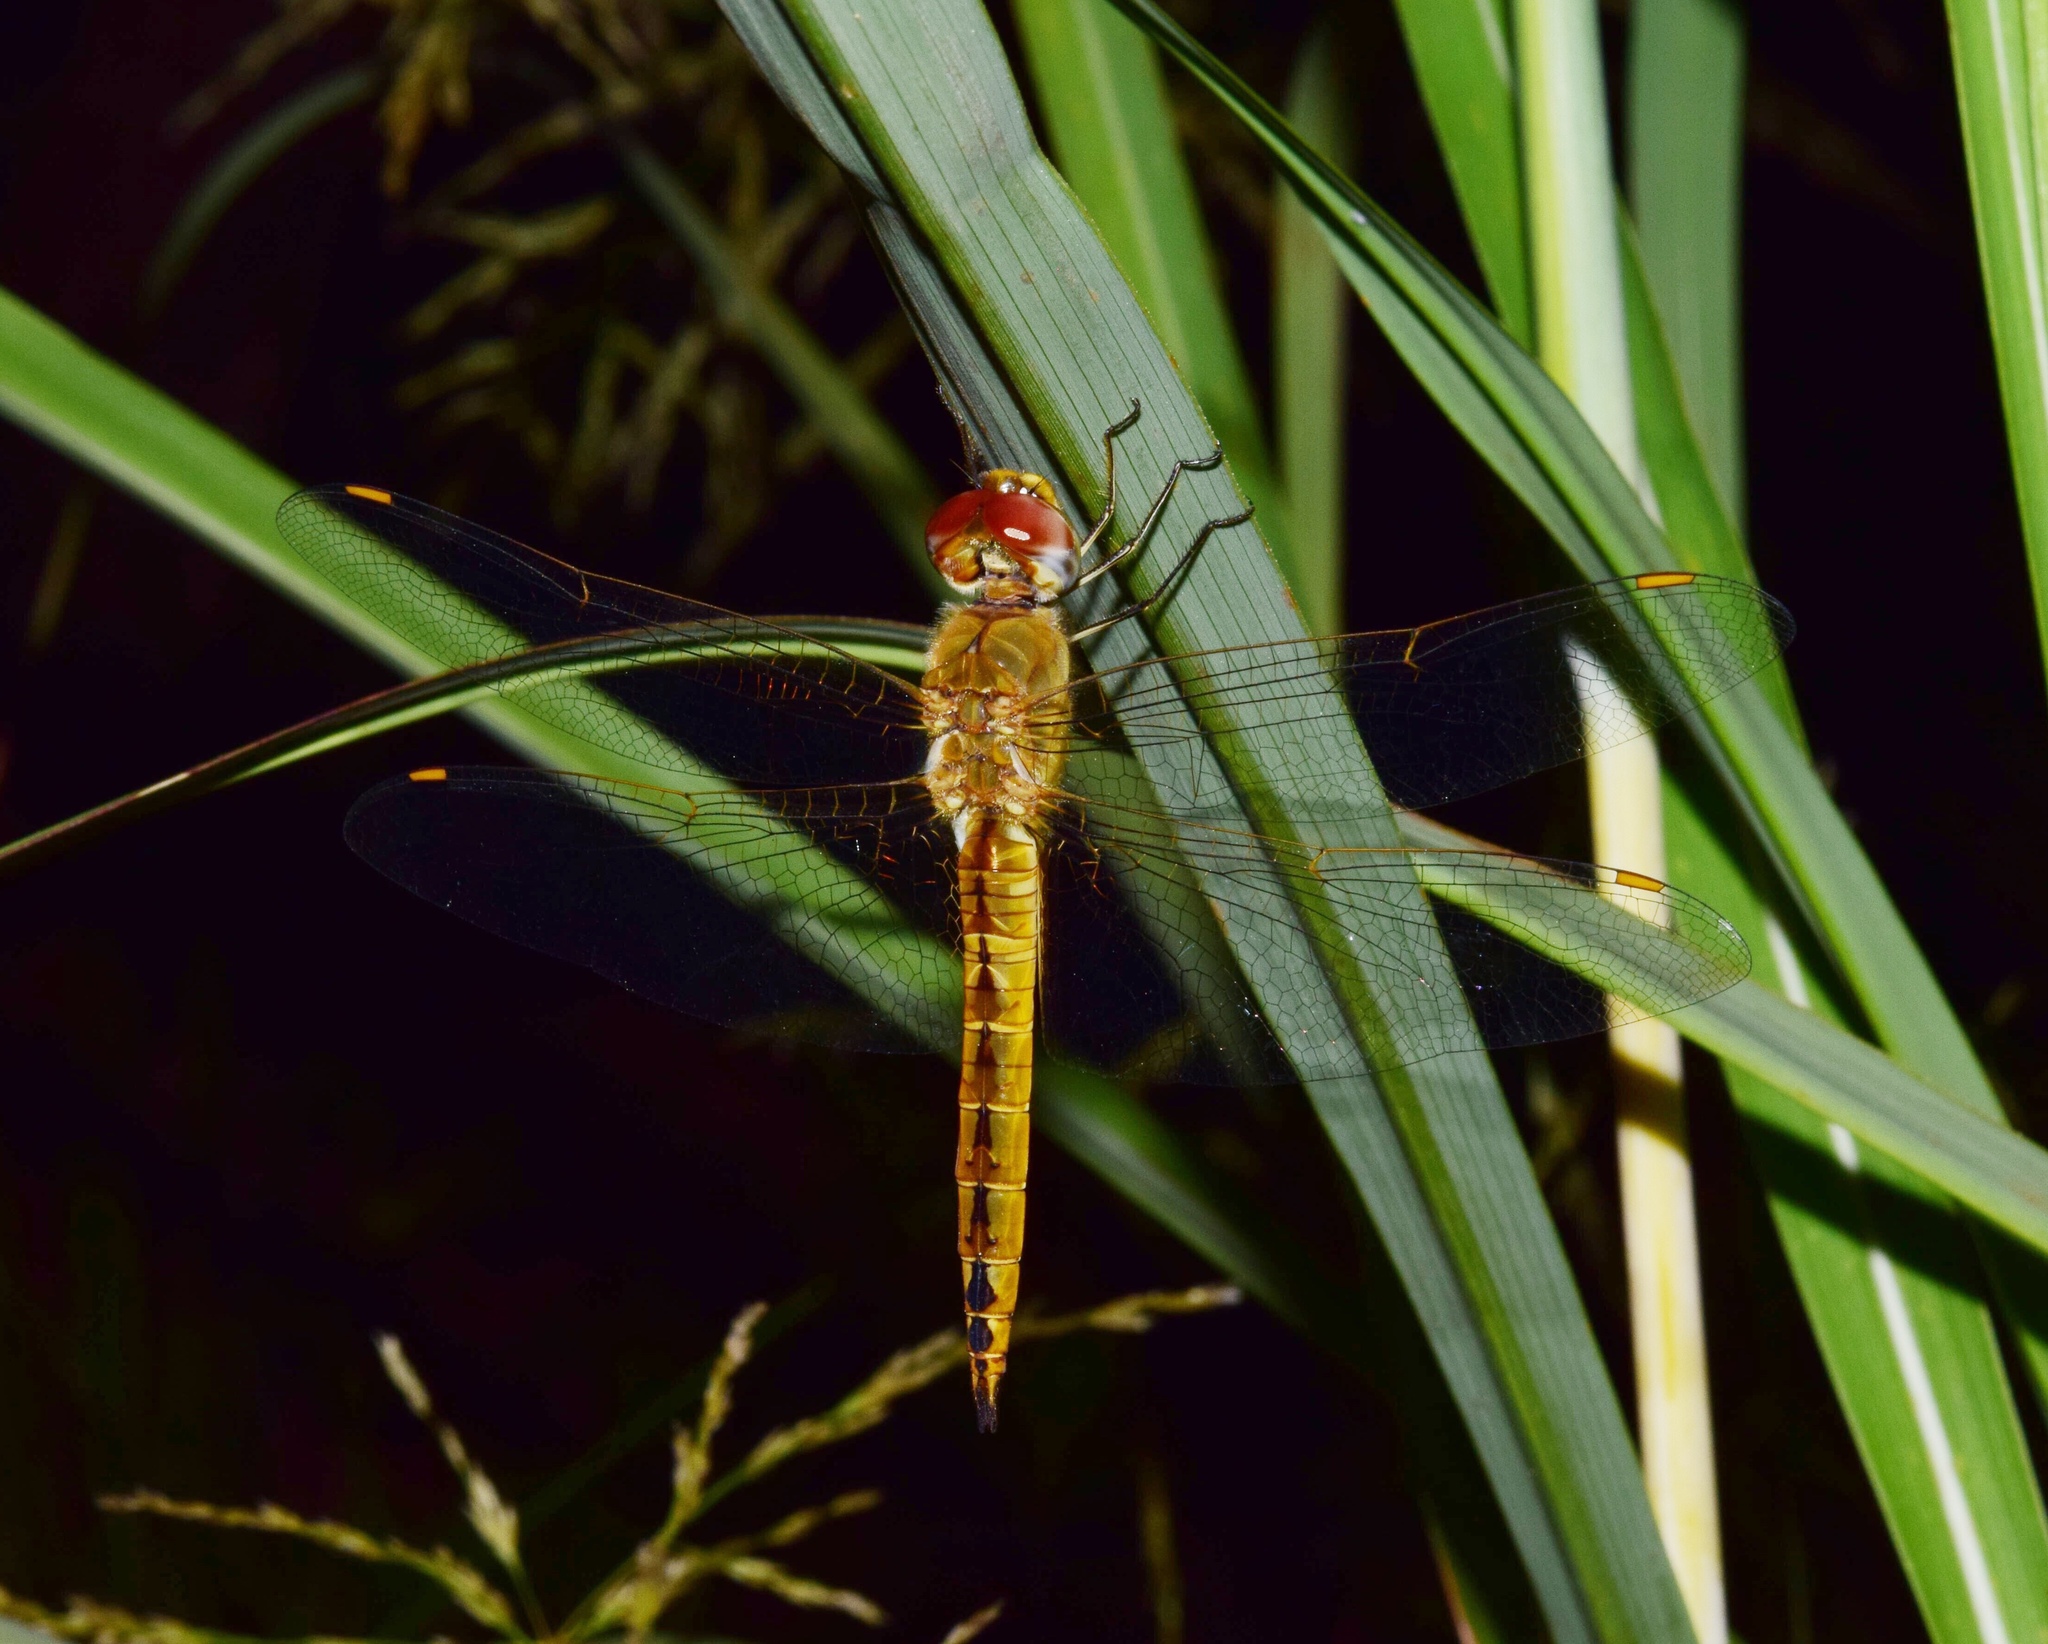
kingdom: Animalia
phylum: Arthropoda
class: Insecta
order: Odonata
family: Libellulidae
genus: Pantala
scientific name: Pantala flavescens
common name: Wandering glider
